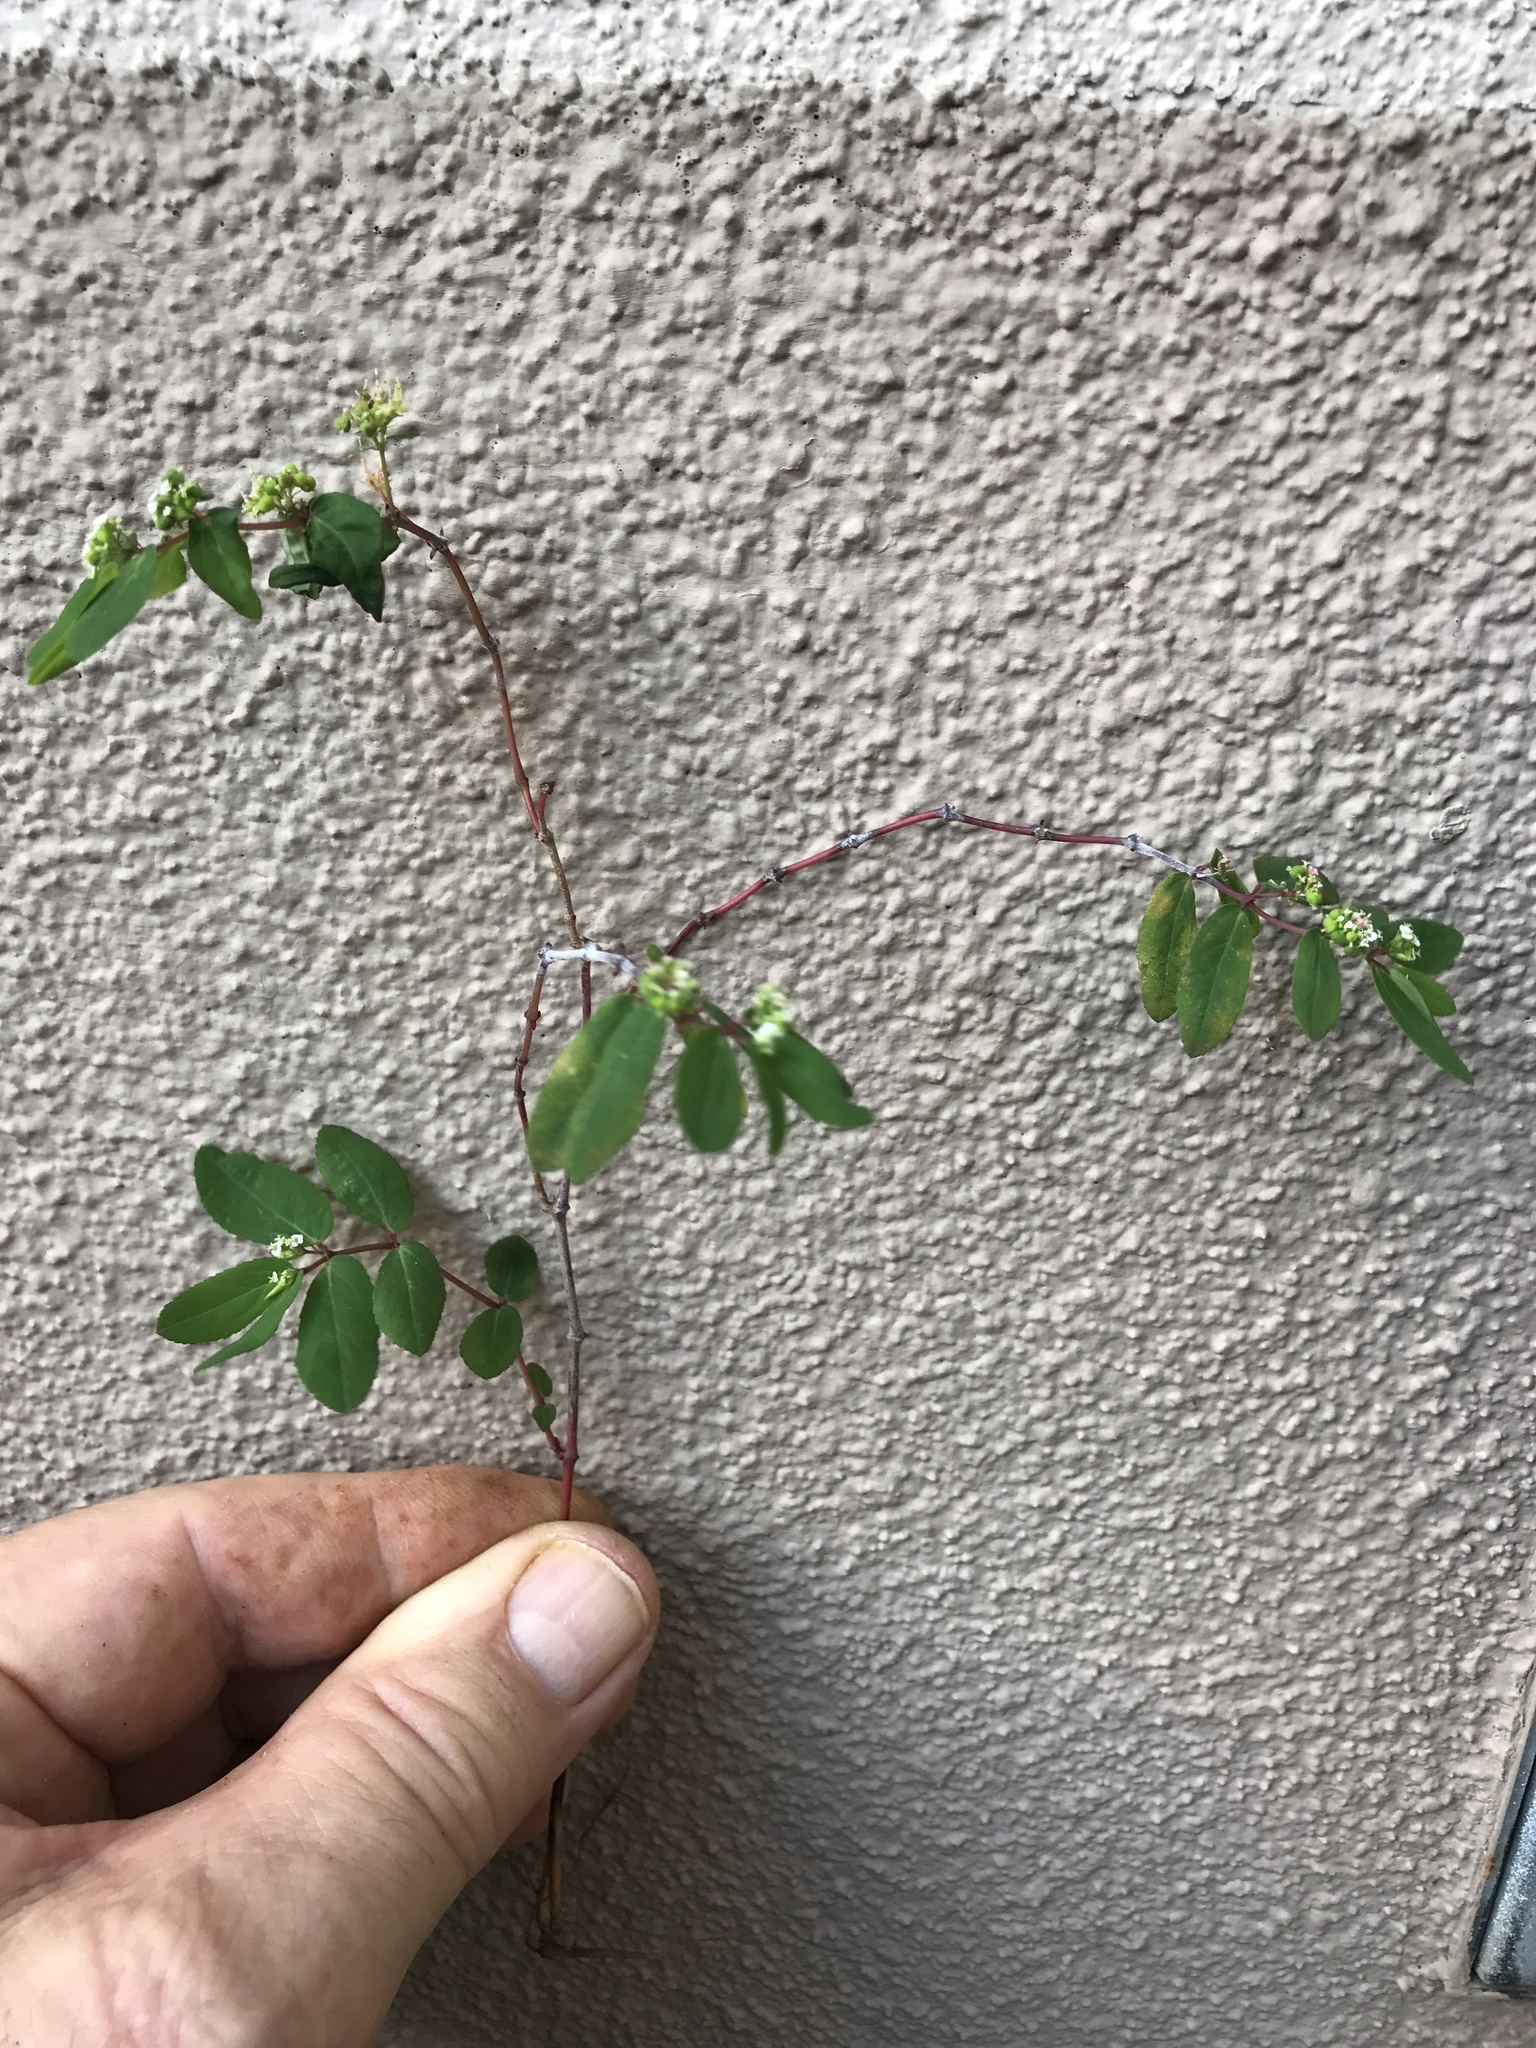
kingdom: Plantae
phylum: Tracheophyta
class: Magnoliopsida
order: Malpighiales
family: Euphorbiaceae
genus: Euphorbia
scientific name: Euphorbia hypericifolia
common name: Graceful sandmat
